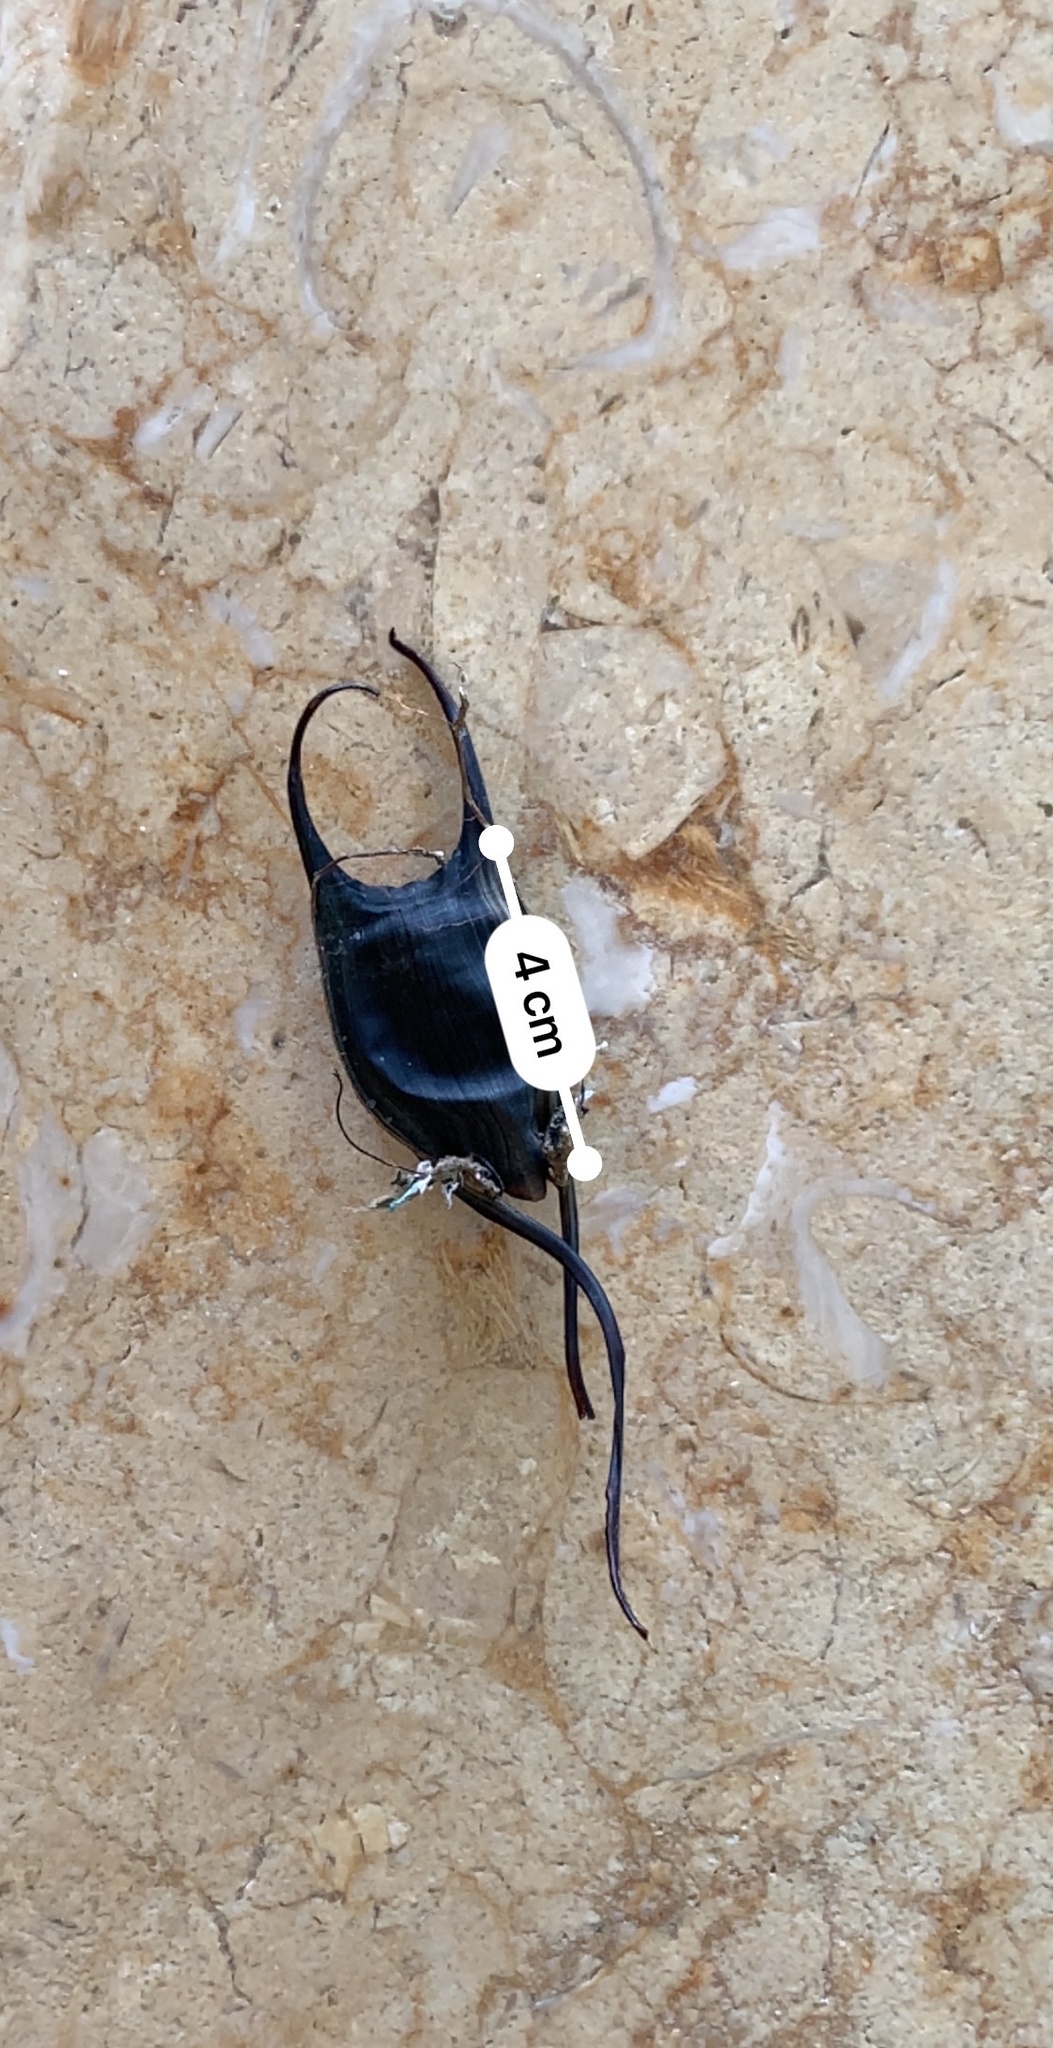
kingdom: Animalia
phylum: Chordata
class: Elasmobranchii
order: Rajiformes
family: Rajidae
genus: Leucoraja
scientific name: Leucoraja garmani
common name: Rosette skate
